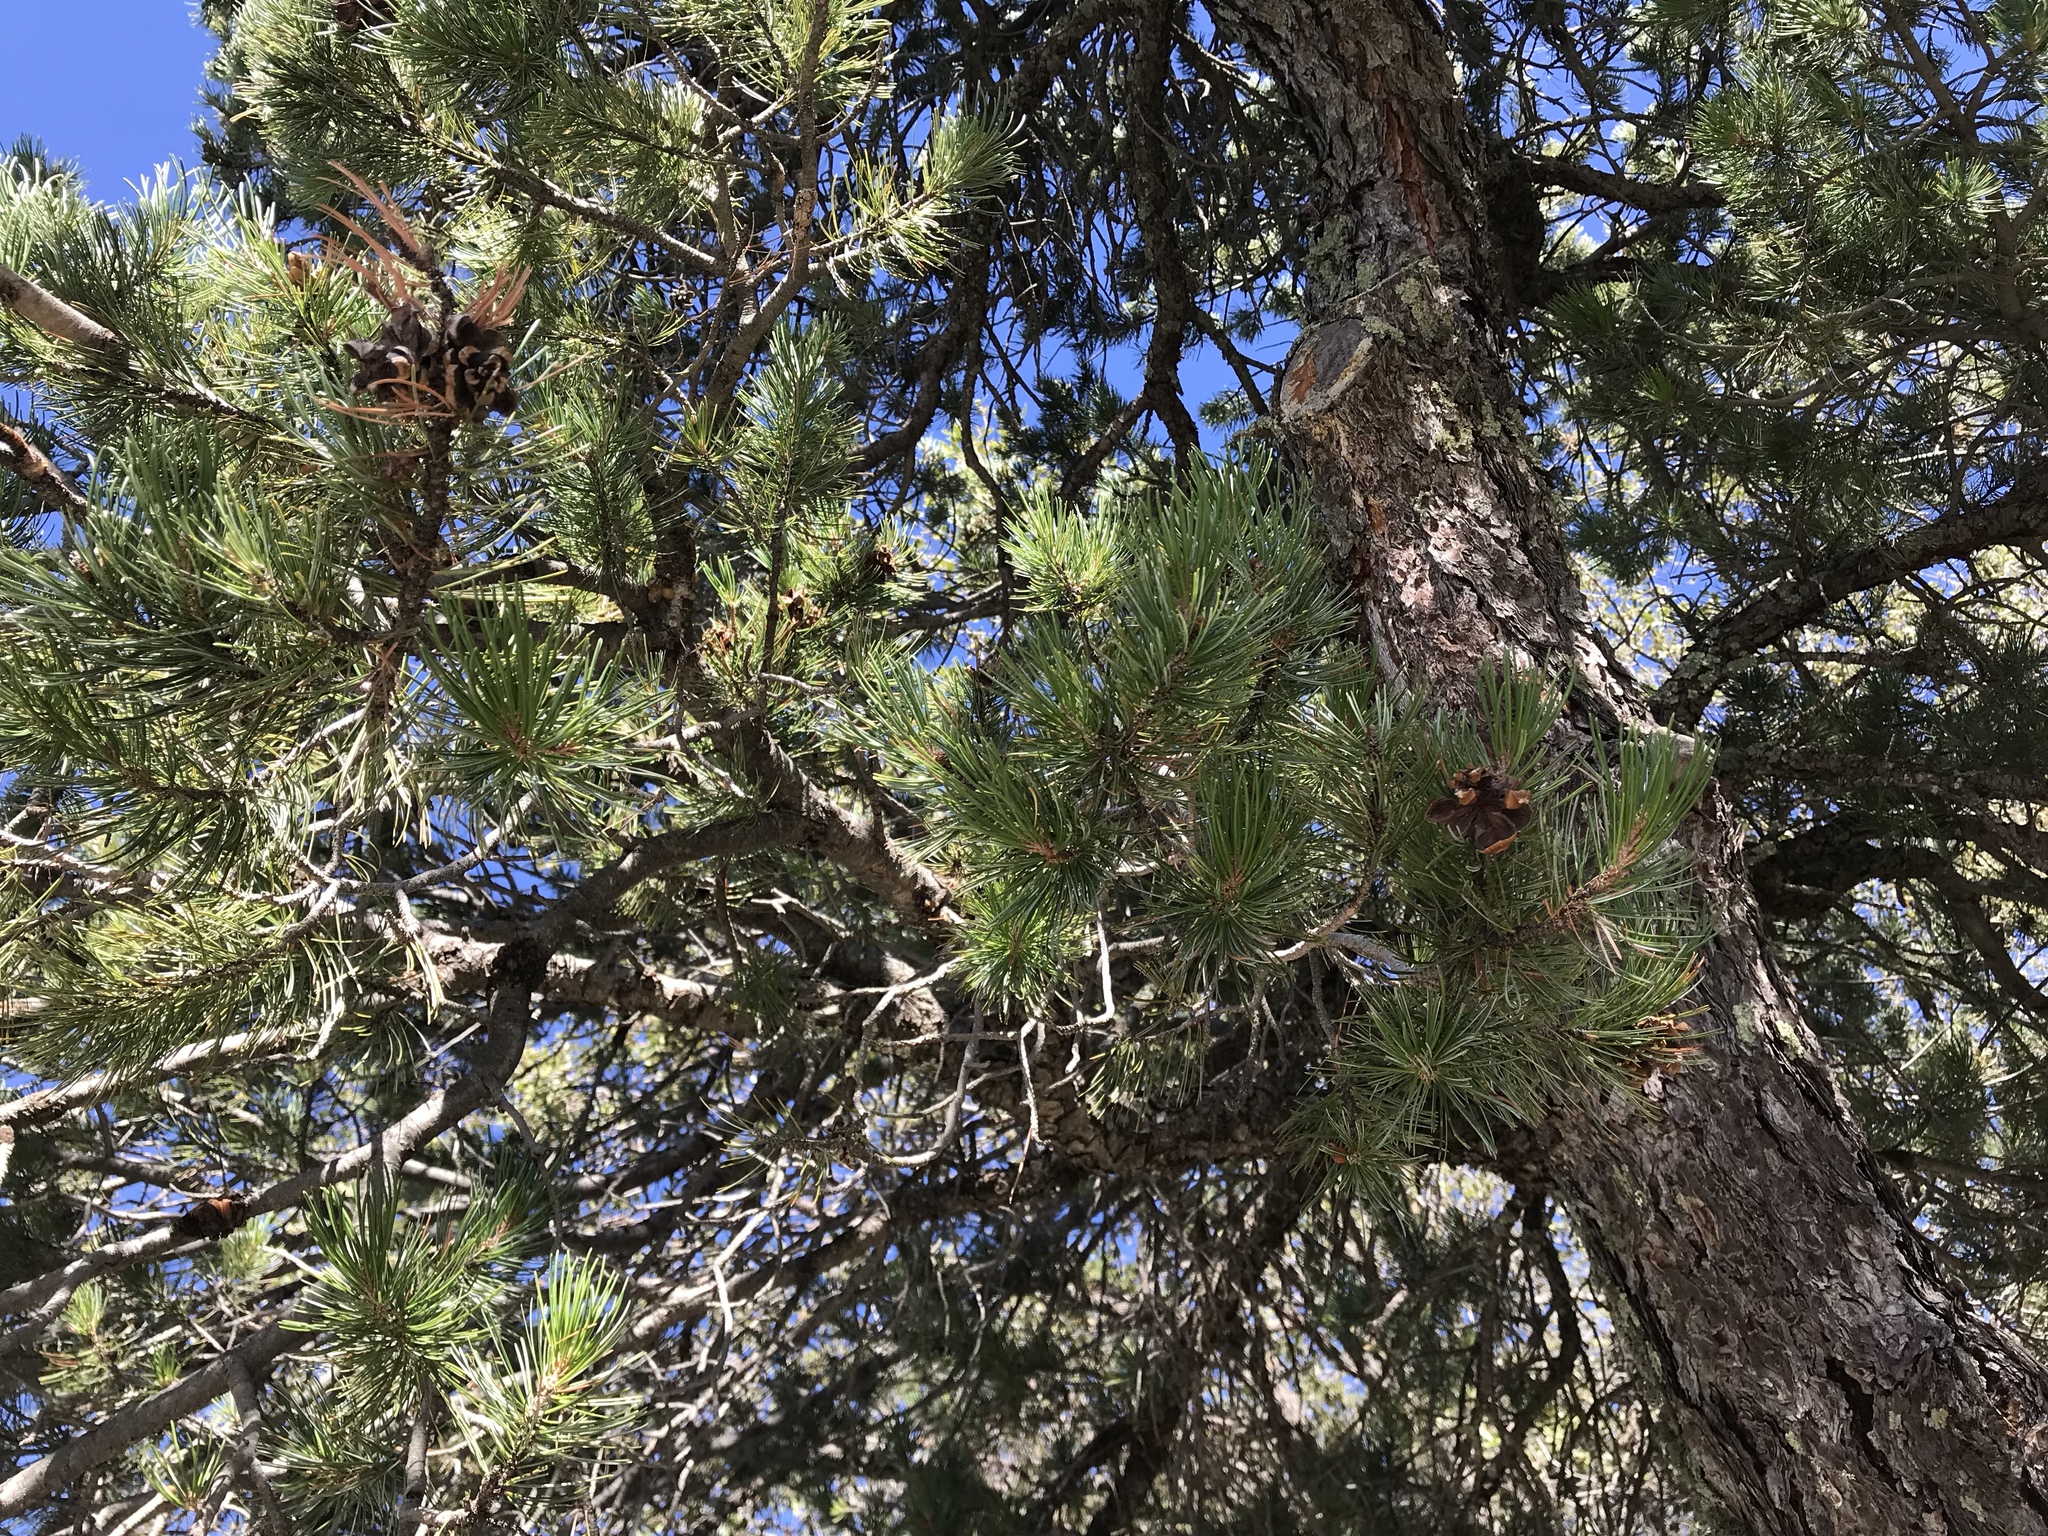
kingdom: Plantae
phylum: Tracheophyta
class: Pinopsida
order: Pinales
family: Pinaceae
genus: Pinus
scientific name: Pinus discolor
